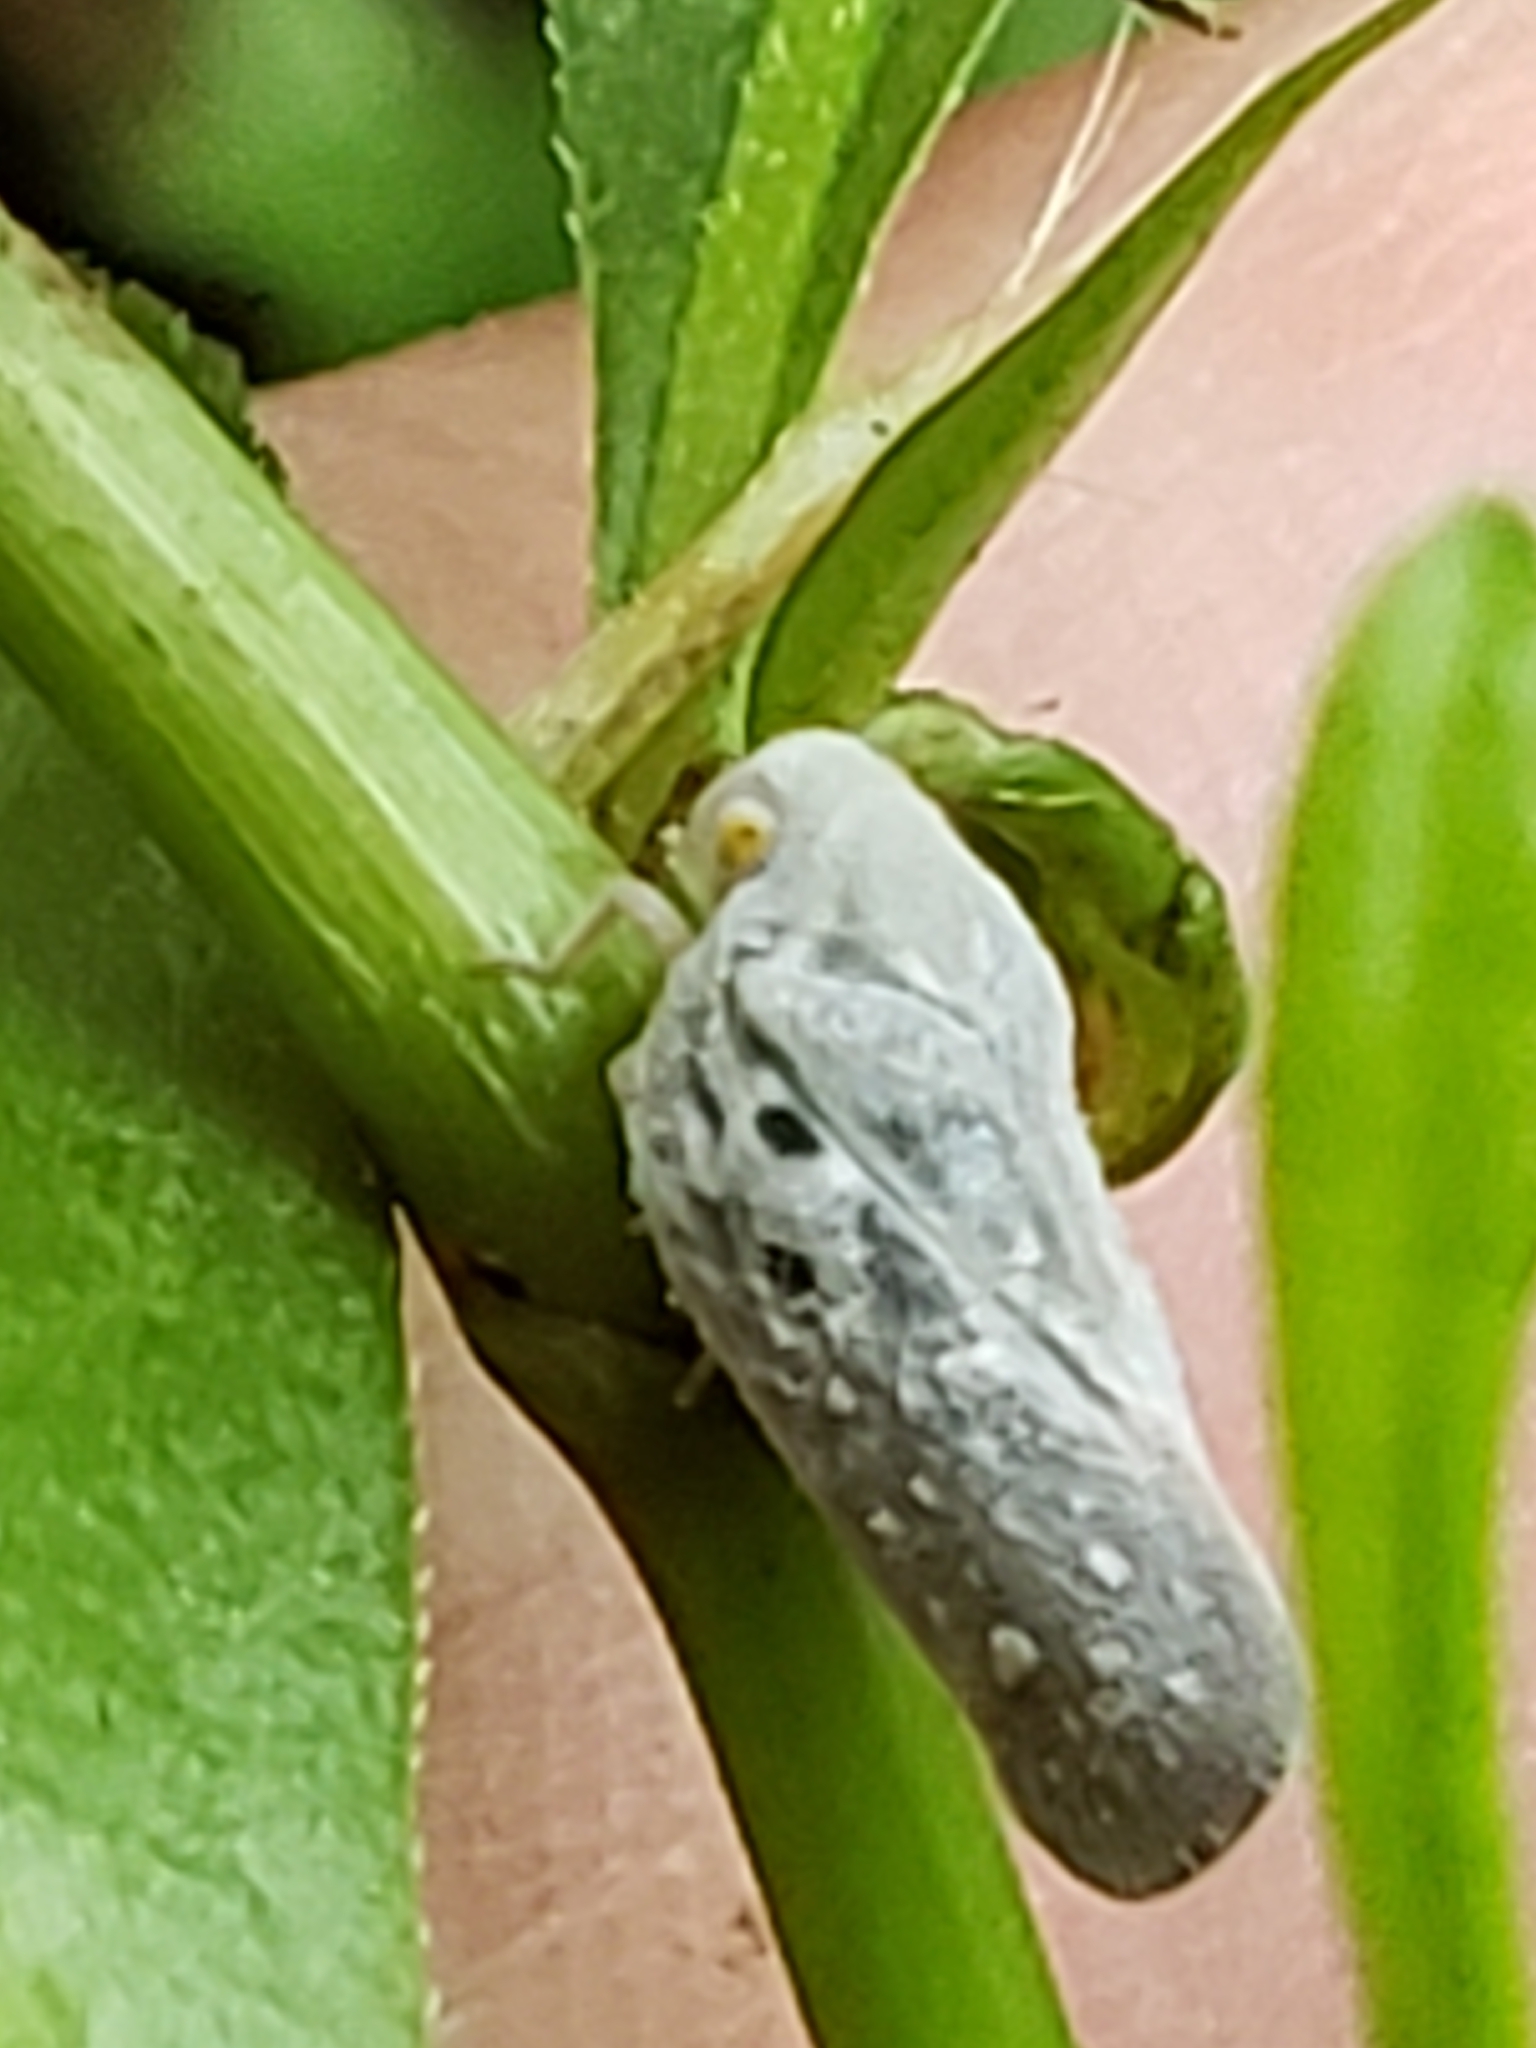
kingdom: Animalia
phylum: Arthropoda
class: Insecta
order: Hemiptera
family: Flatidae
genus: Metcalfa
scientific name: Metcalfa pruinosa
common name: Citrus flatid planthopper
